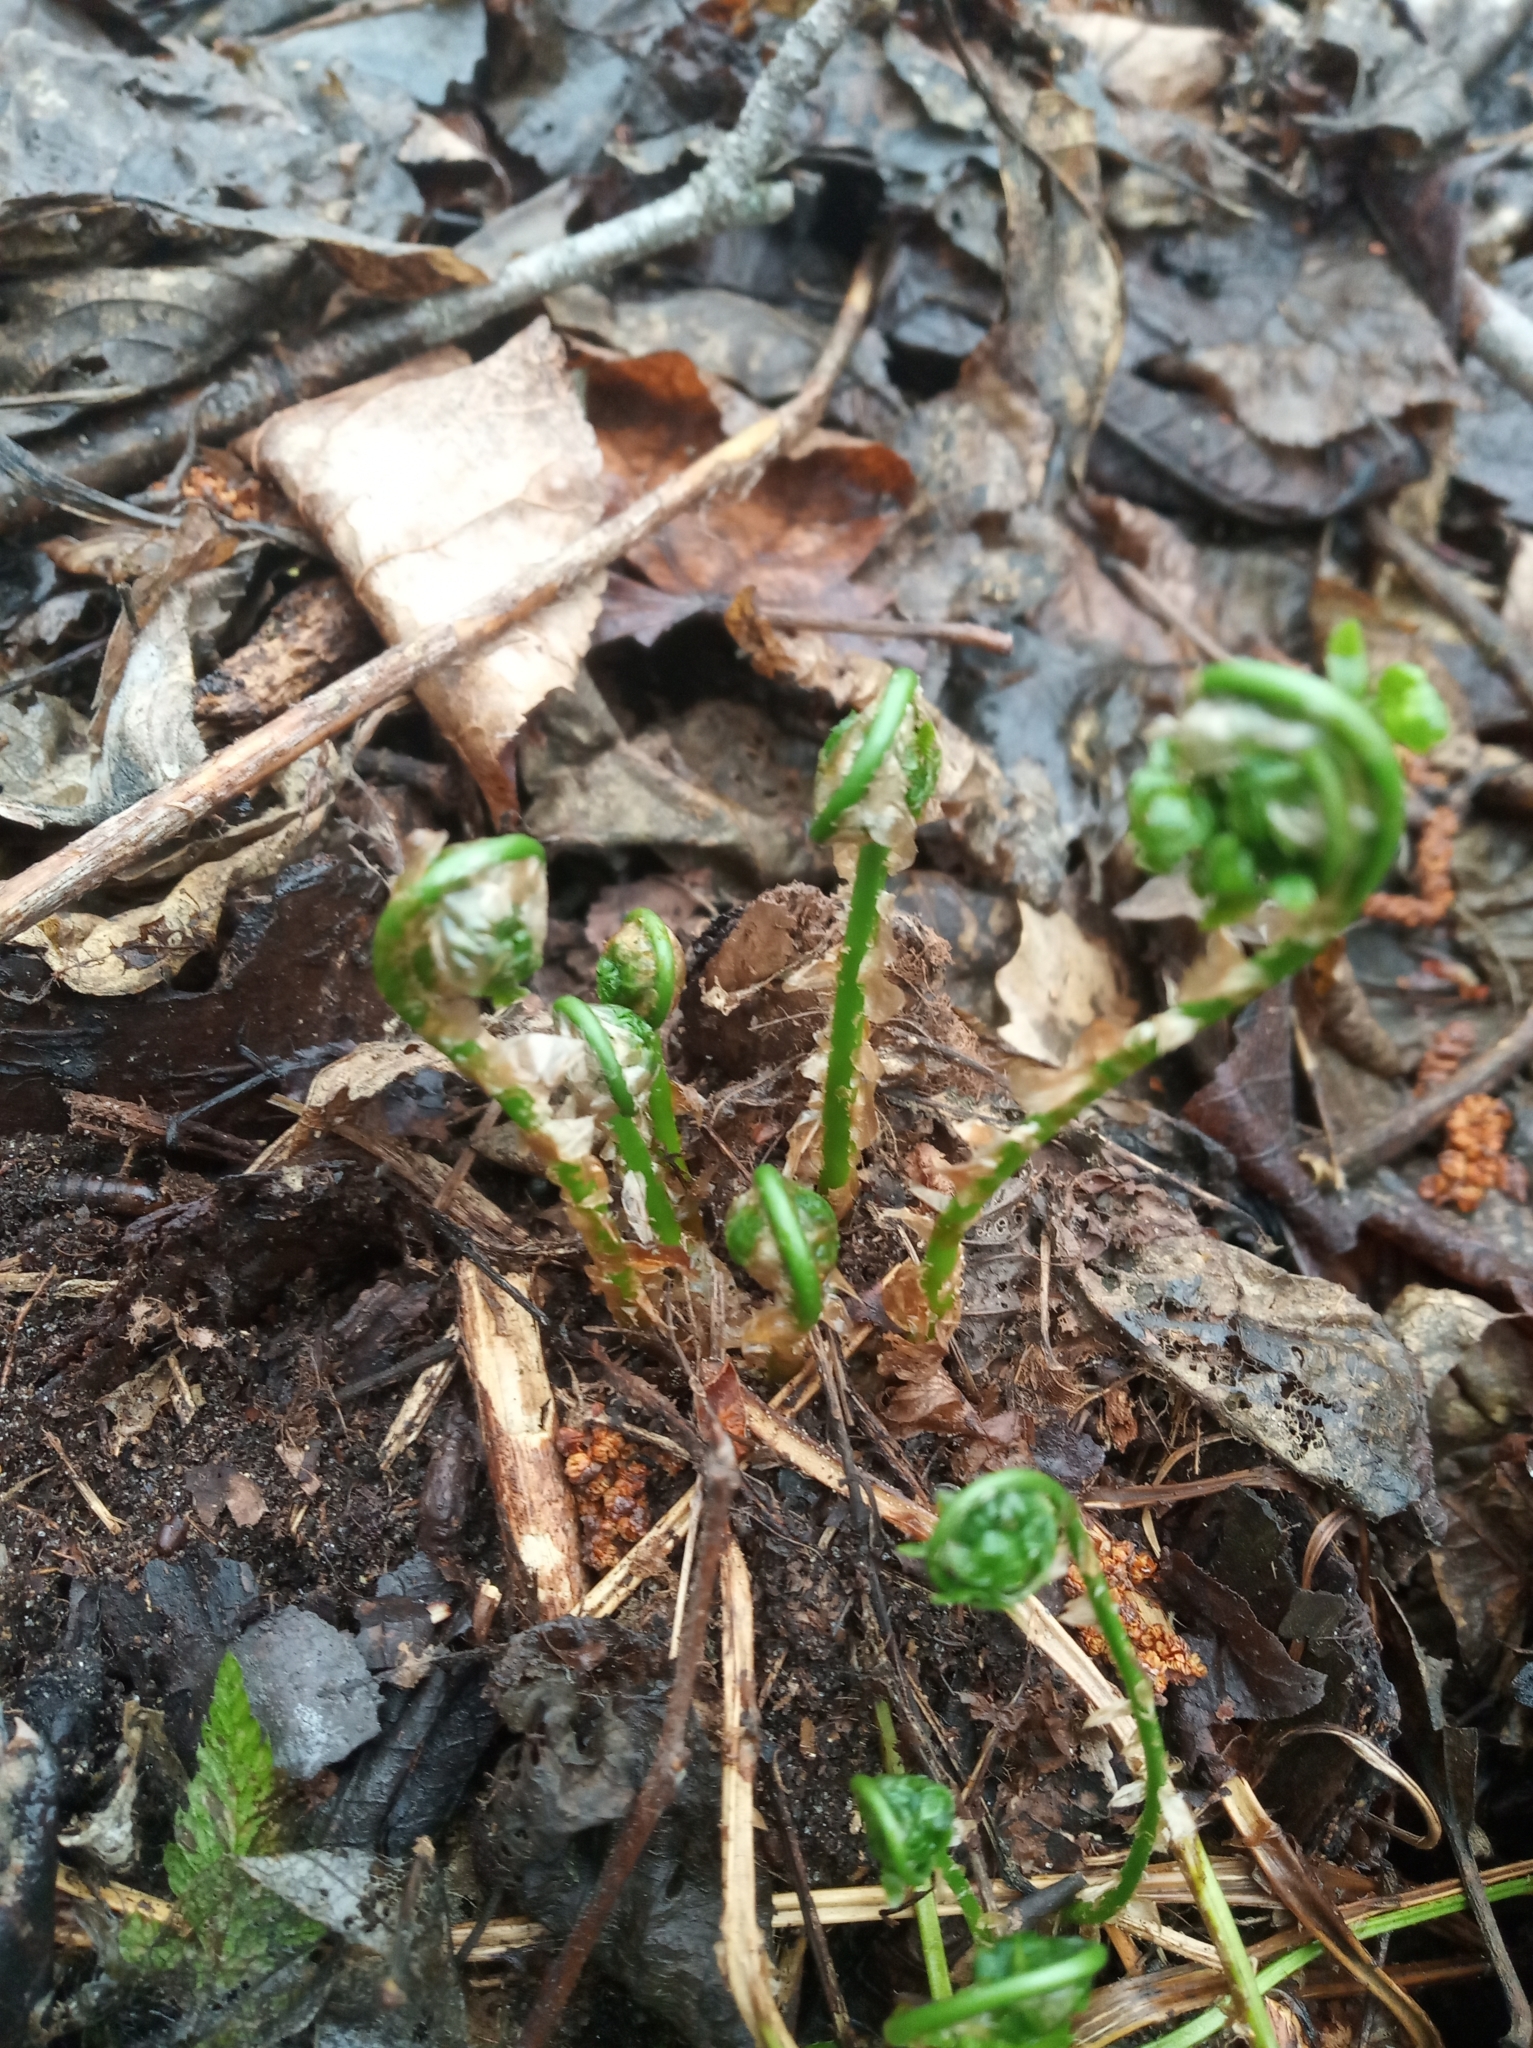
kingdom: Plantae
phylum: Tracheophyta
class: Polypodiopsida
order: Polypodiales
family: Dryopteridaceae
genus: Dryopteris
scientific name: Dryopteris carthusiana
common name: Narrow buckler-fern
